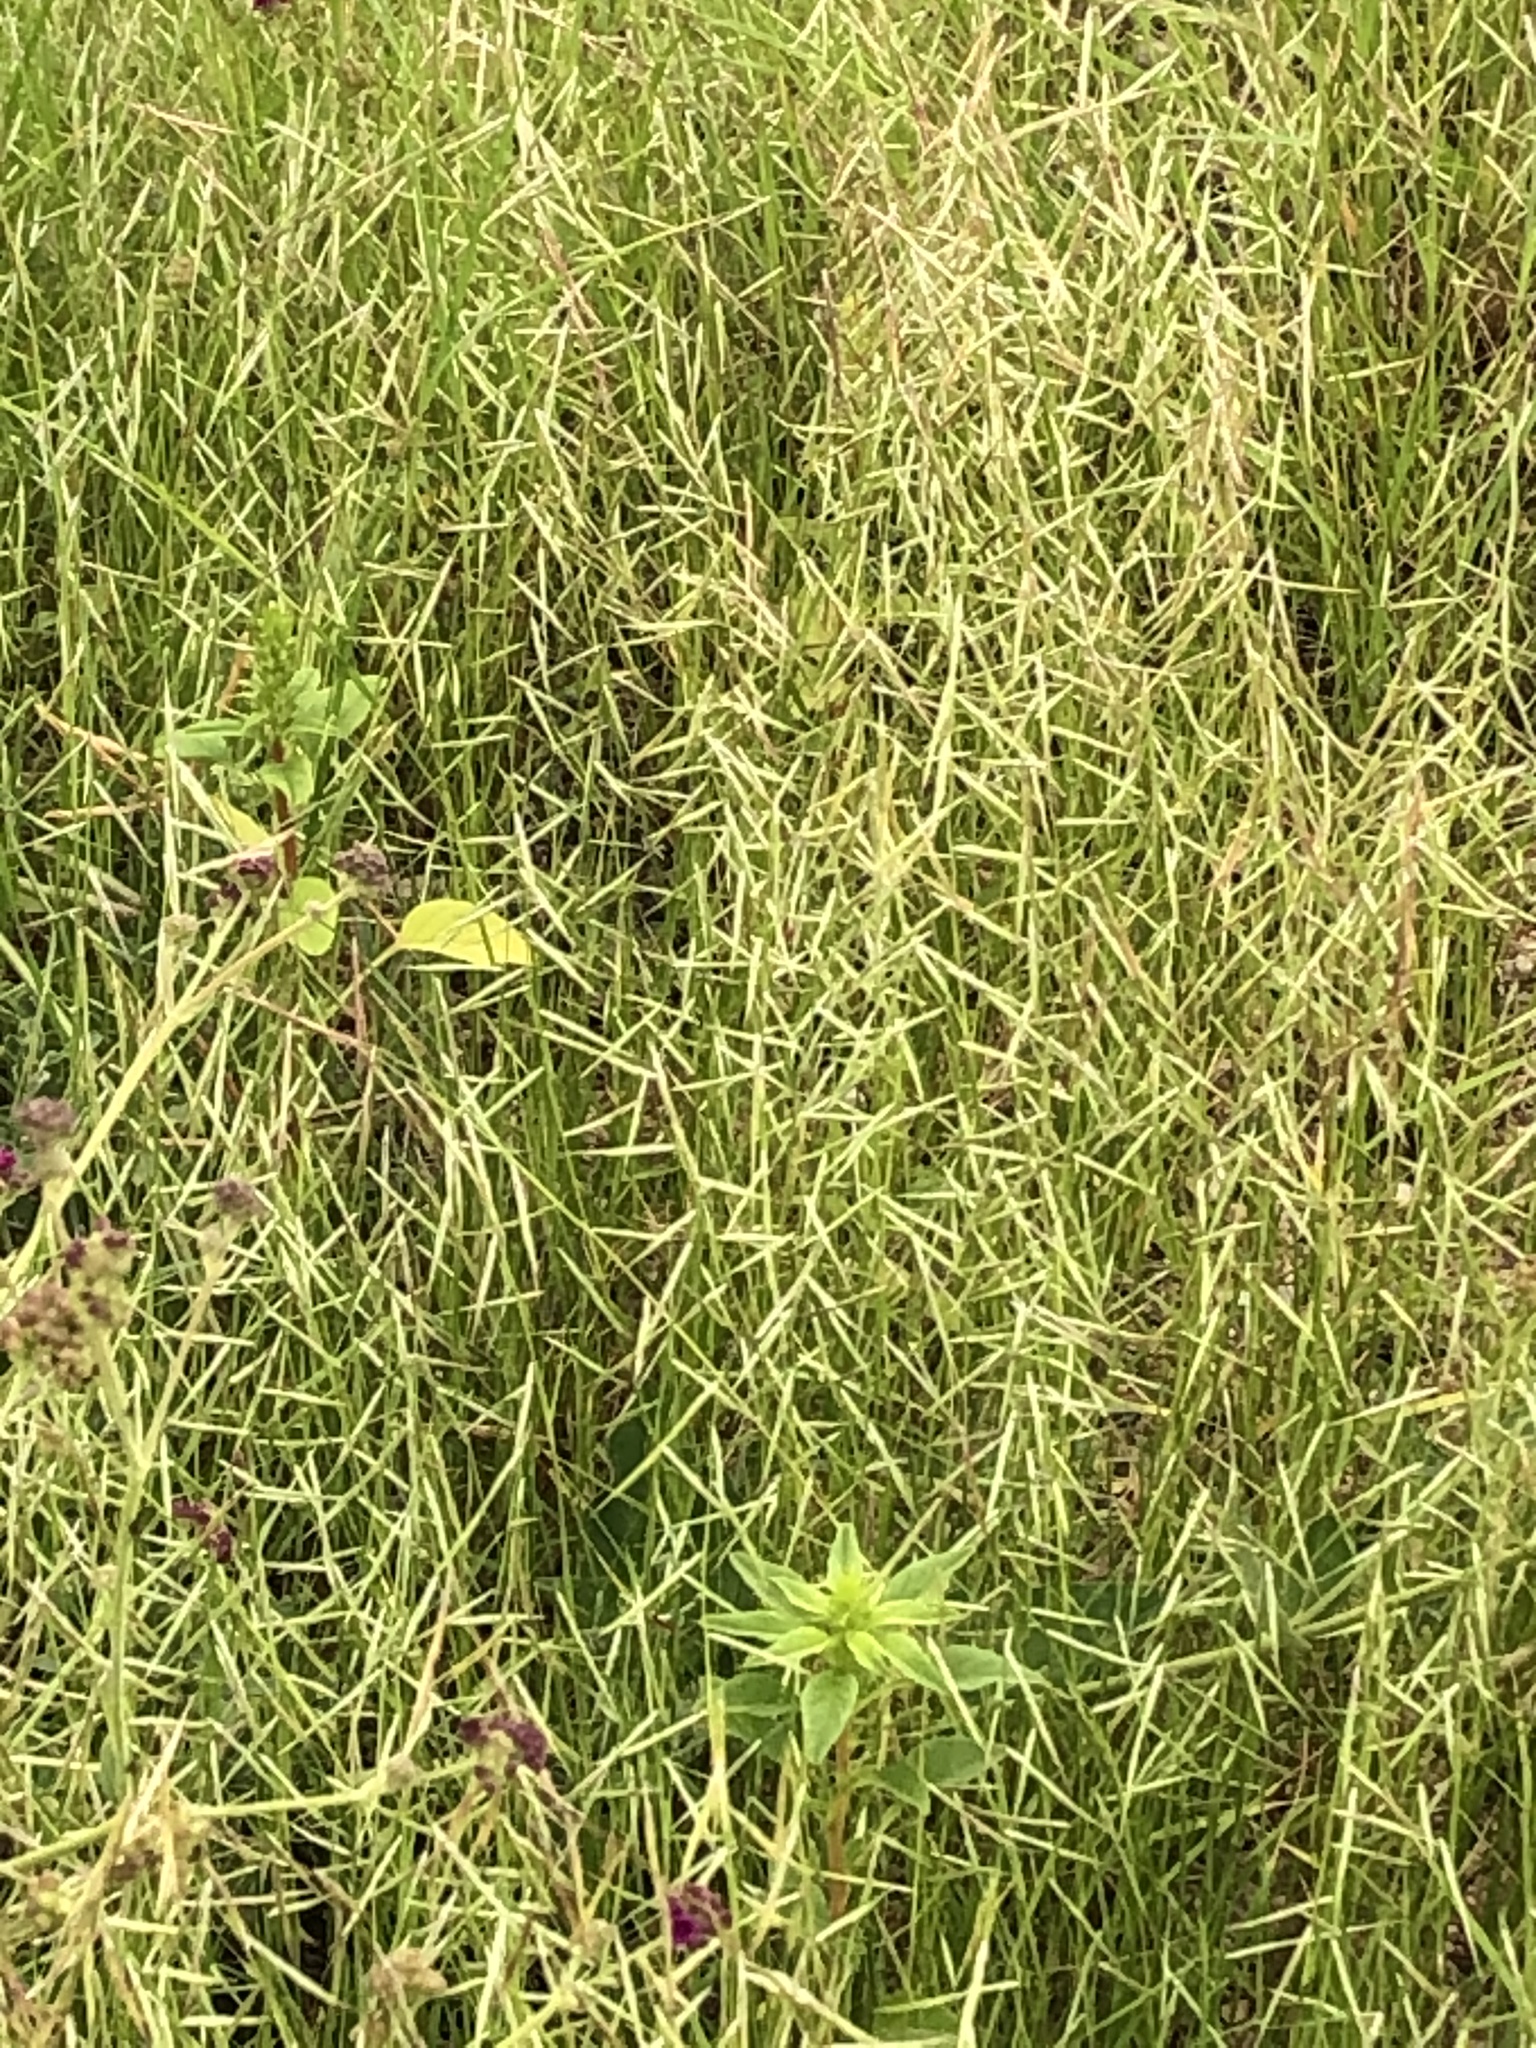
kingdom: Plantae
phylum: Tracheophyta
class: Liliopsida
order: Poales
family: Poaceae
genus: Bouteloua
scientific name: Bouteloua aristidoides
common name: Needle grama
